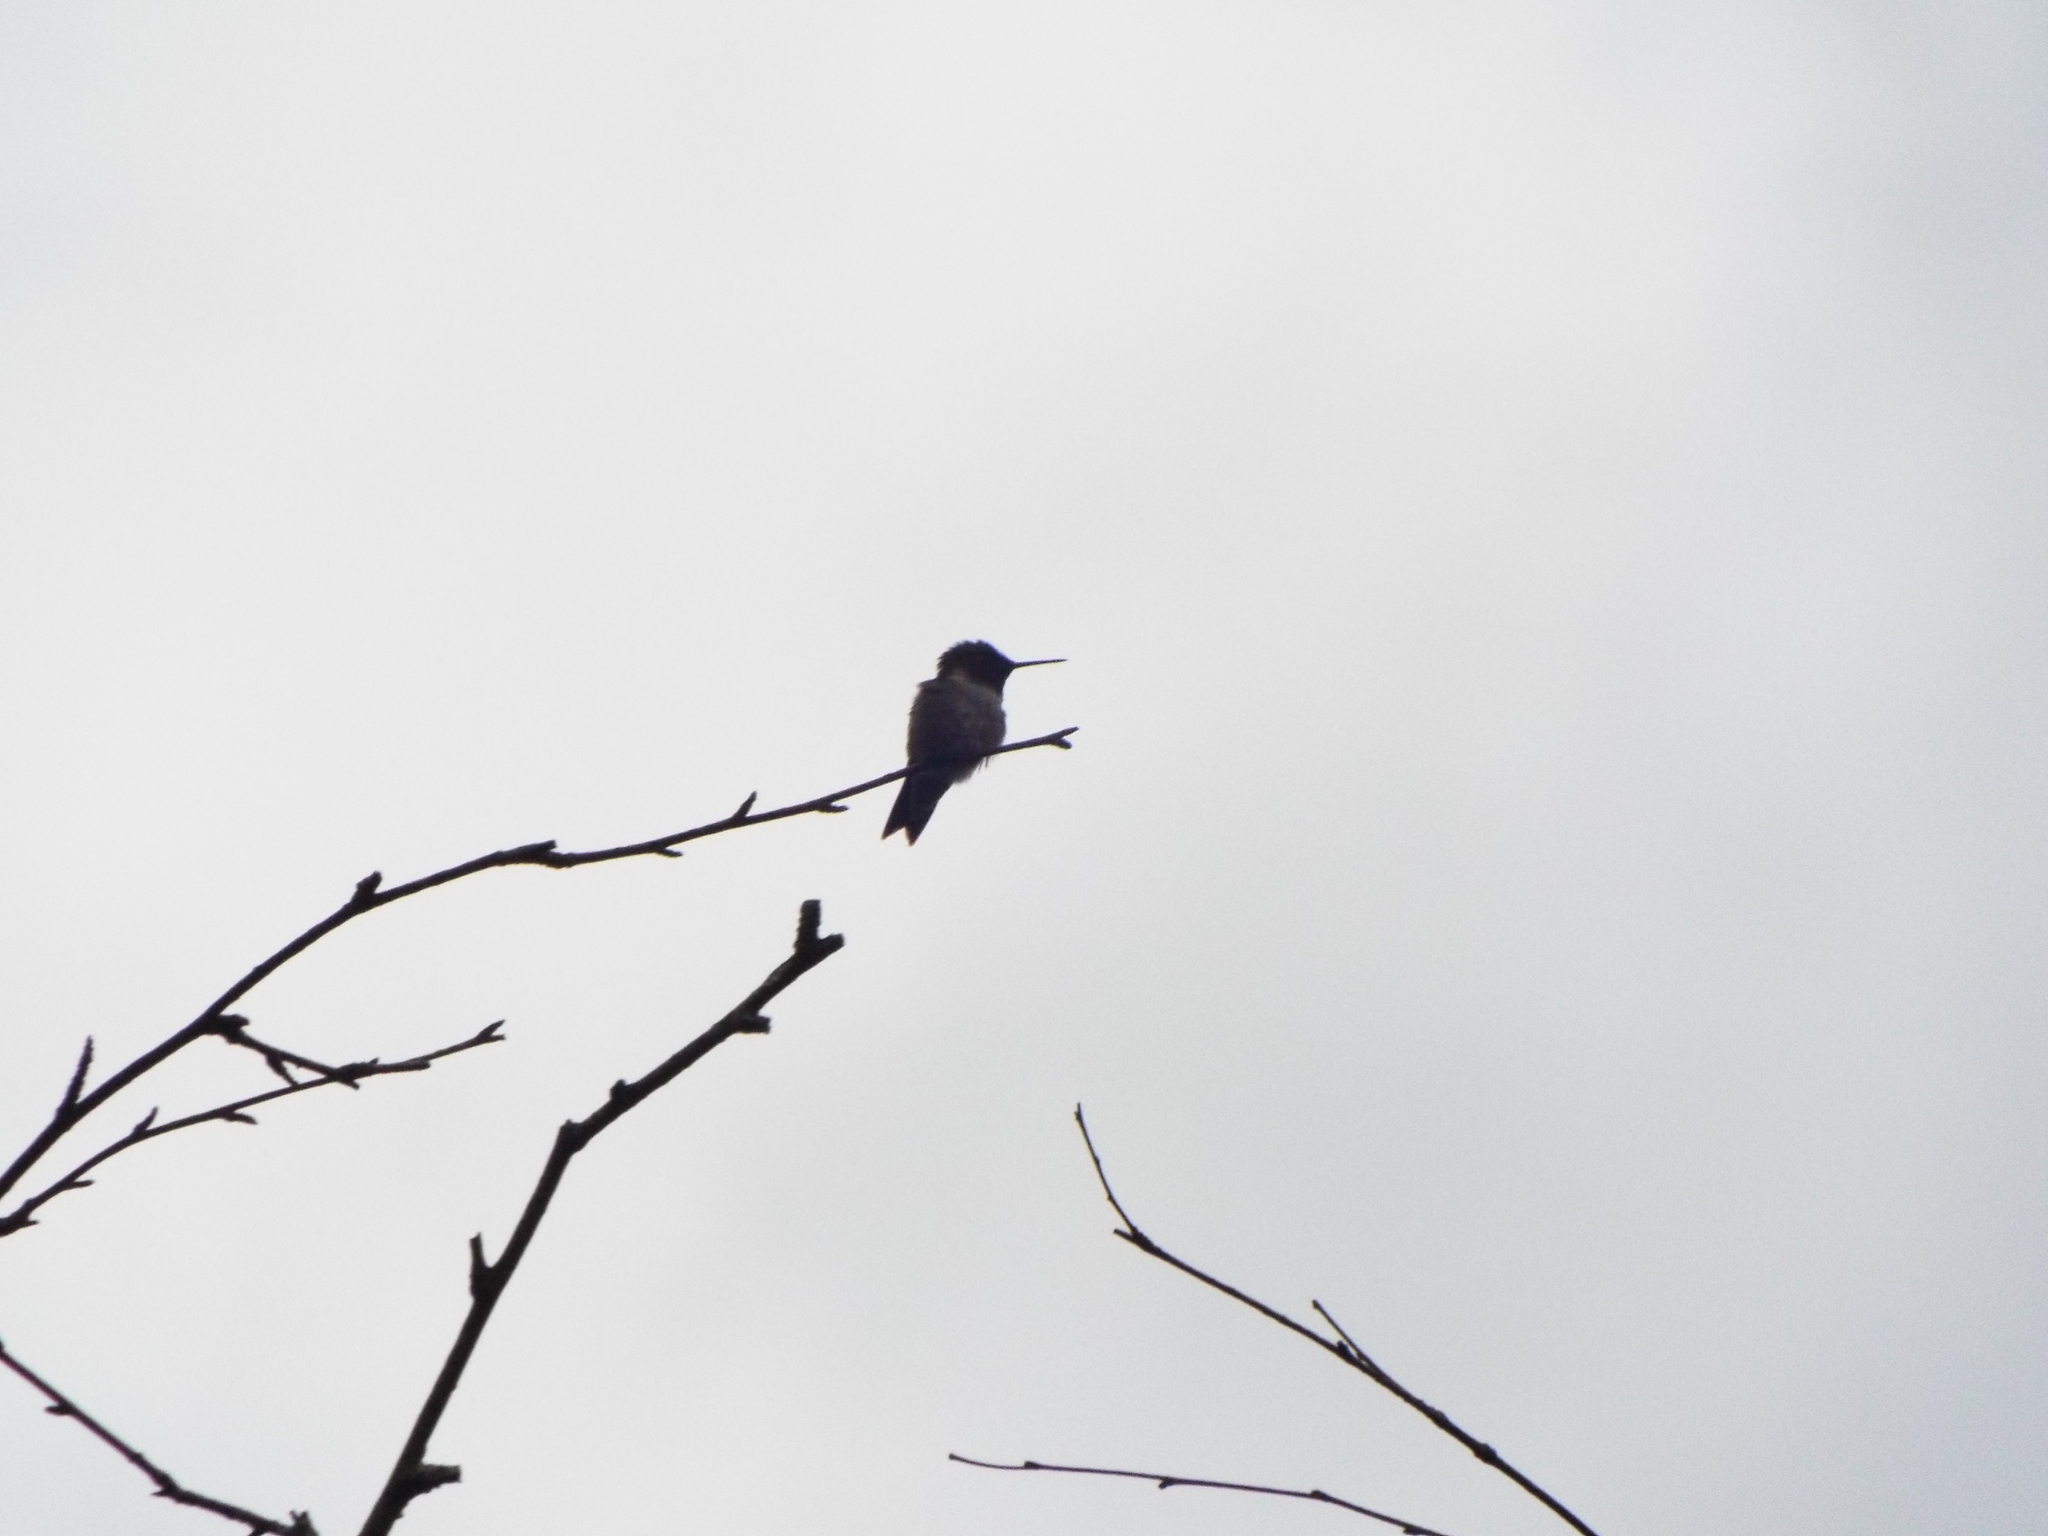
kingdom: Animalia
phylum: Chordata
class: Aves
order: Apodiformes
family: Trochilidae
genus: Archilochus
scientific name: Archilochus colubris
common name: Ruby-throated hummingbird
